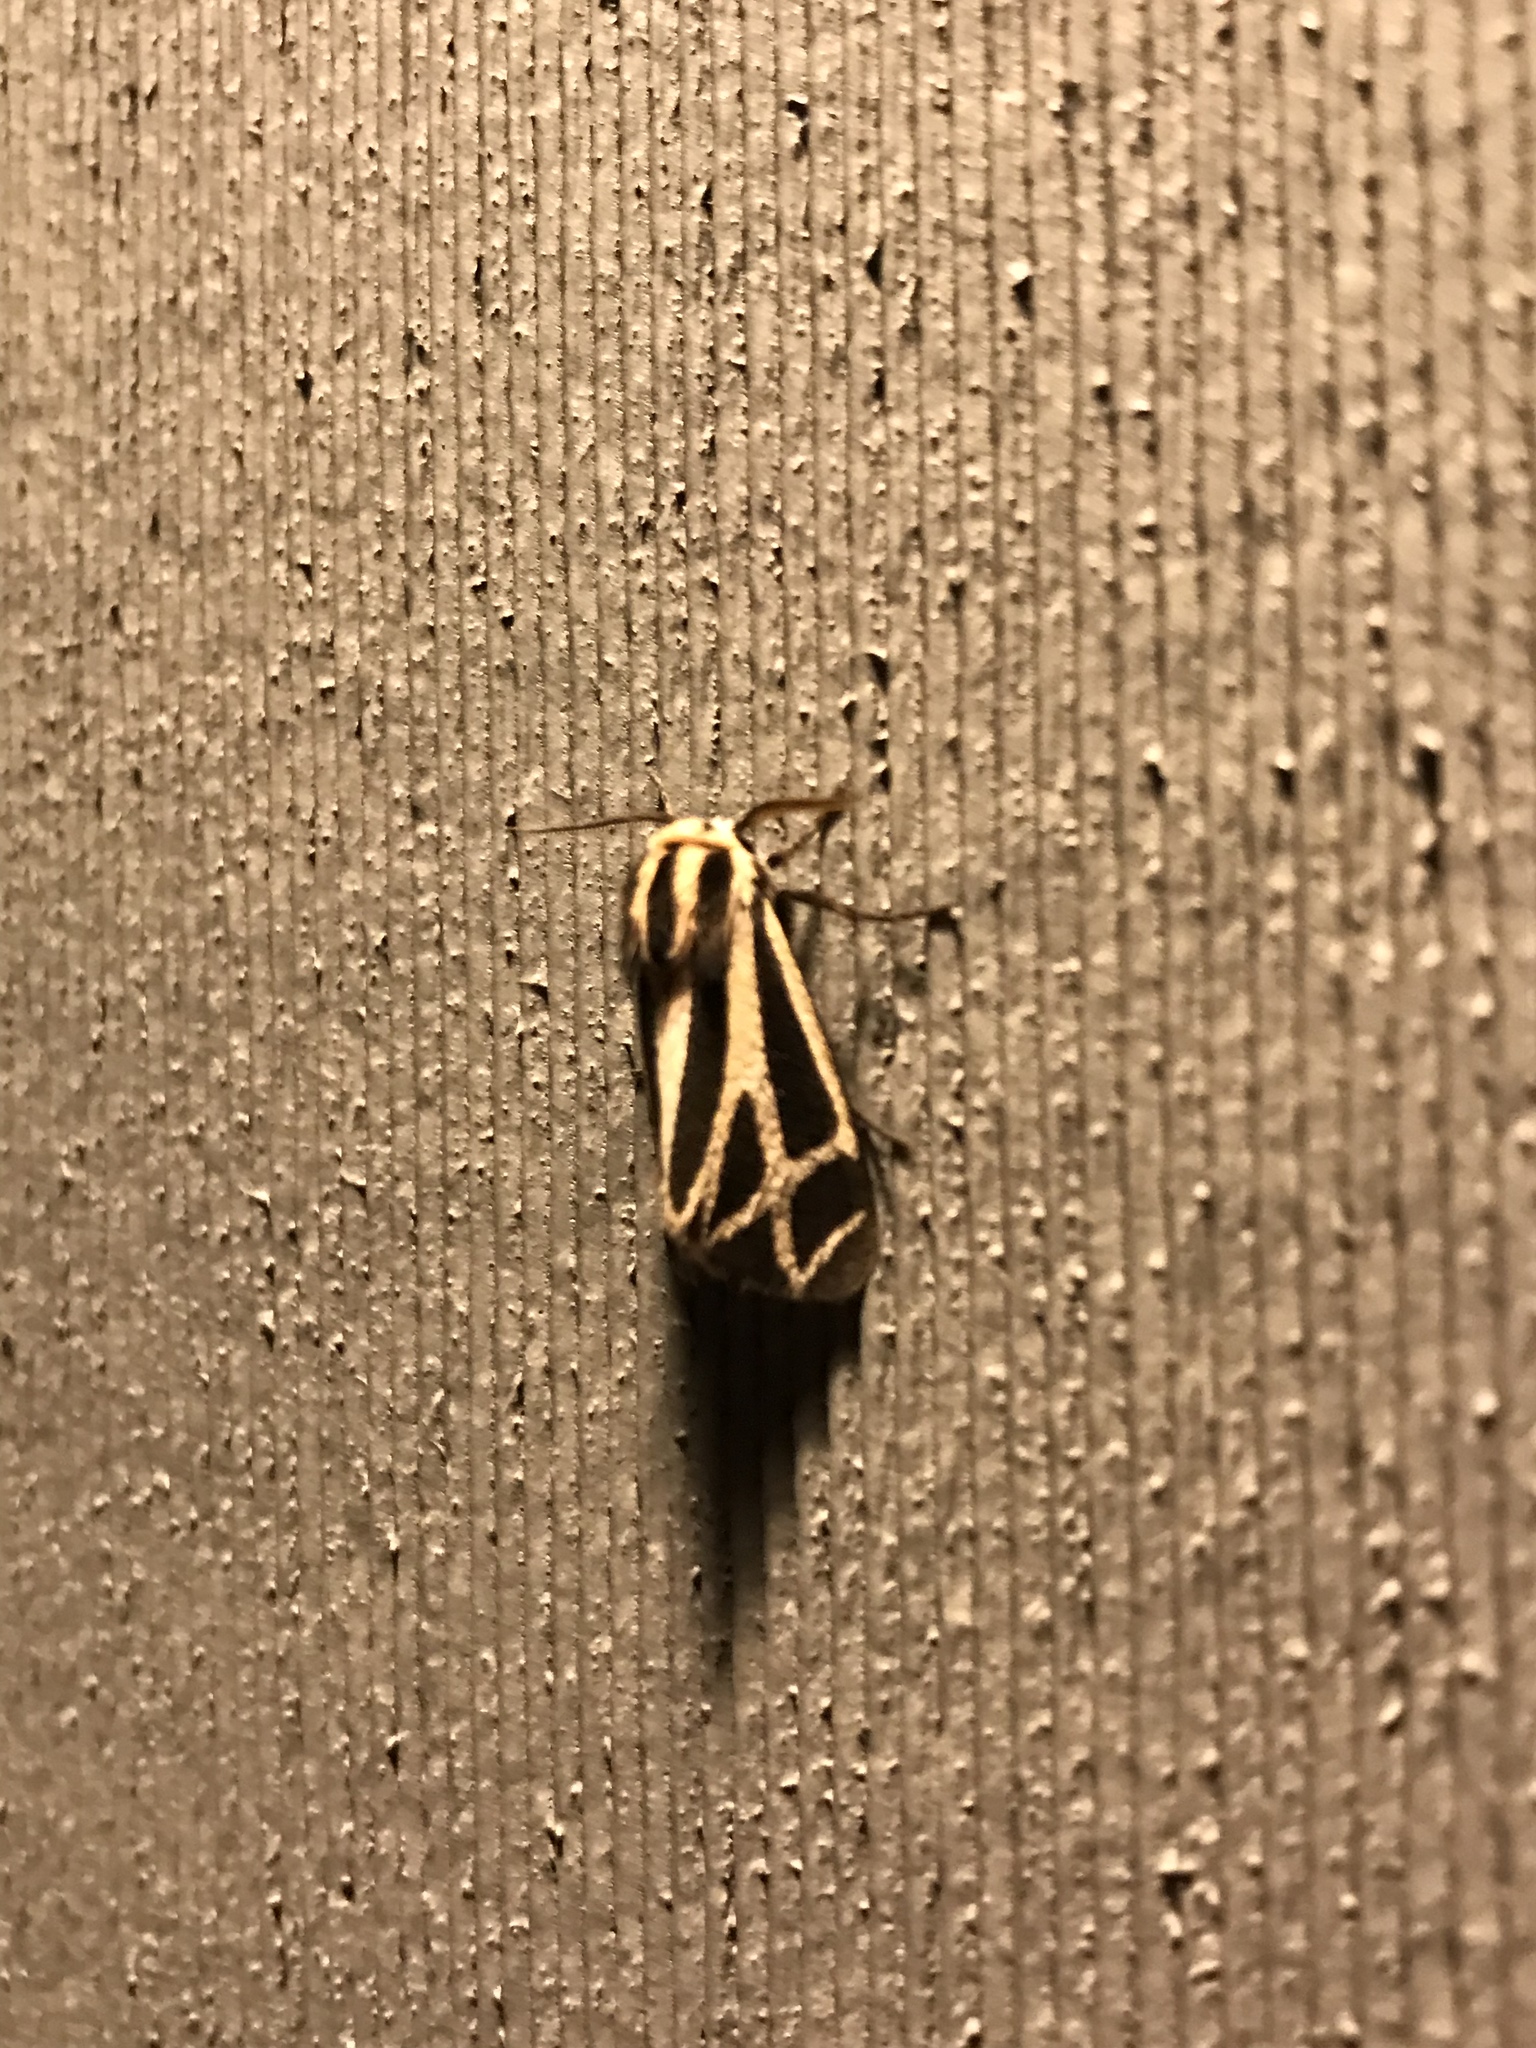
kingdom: Animalia
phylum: Arthropoda
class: Insecta
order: Lepidoptera
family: Erebidae
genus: Apantesis
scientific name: Apantesis phalerata
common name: Harnessed tiger moth
